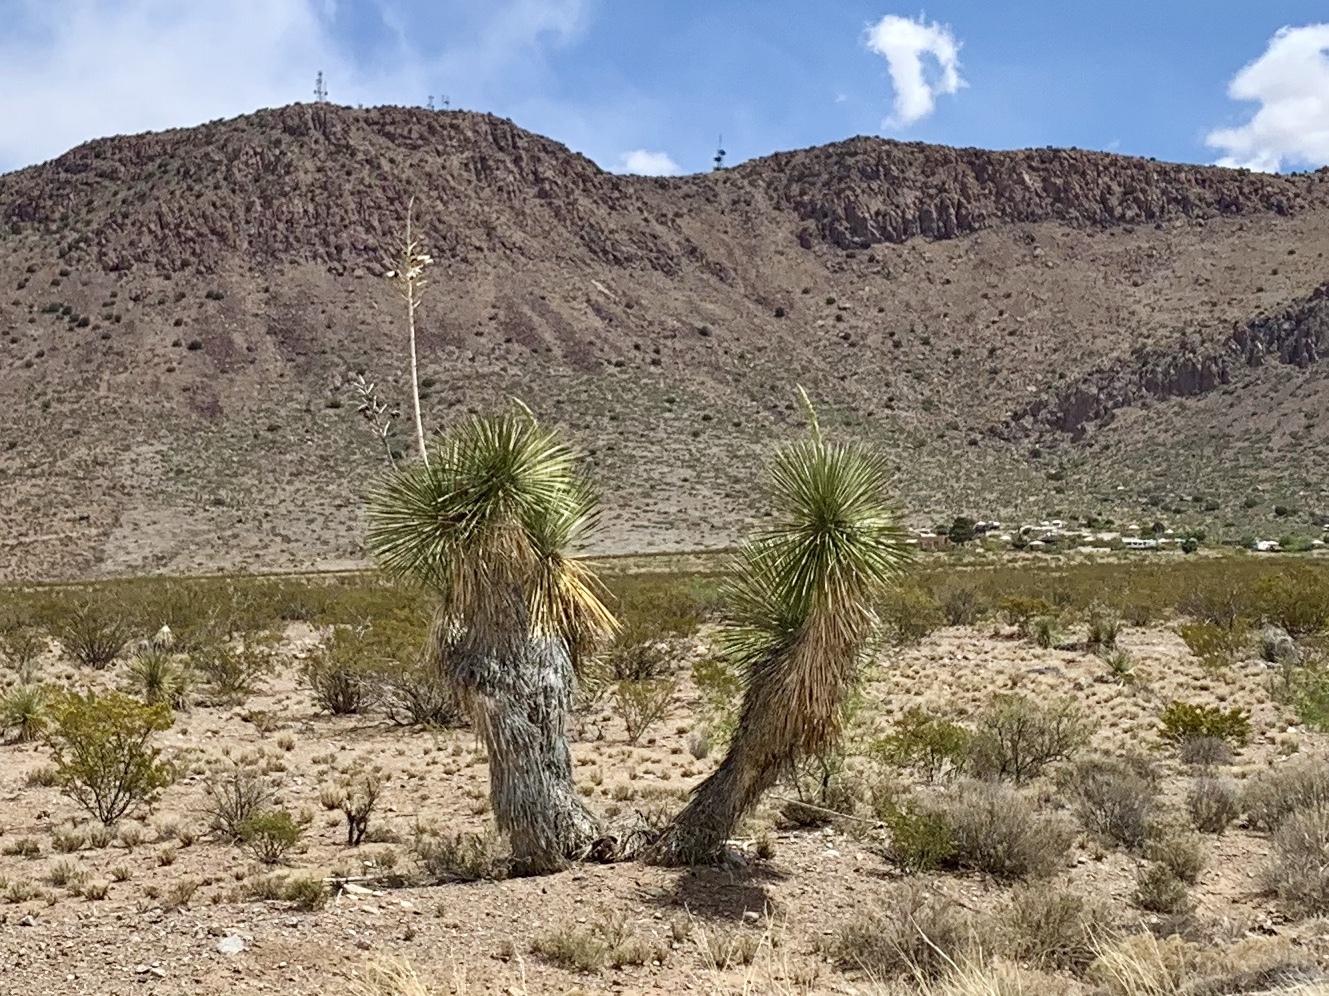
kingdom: Plantae
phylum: Tracheophyta
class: Liliopsida
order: Asparagales
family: Asparagaceae
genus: Yucca
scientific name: Yucca elata
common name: Palmella
